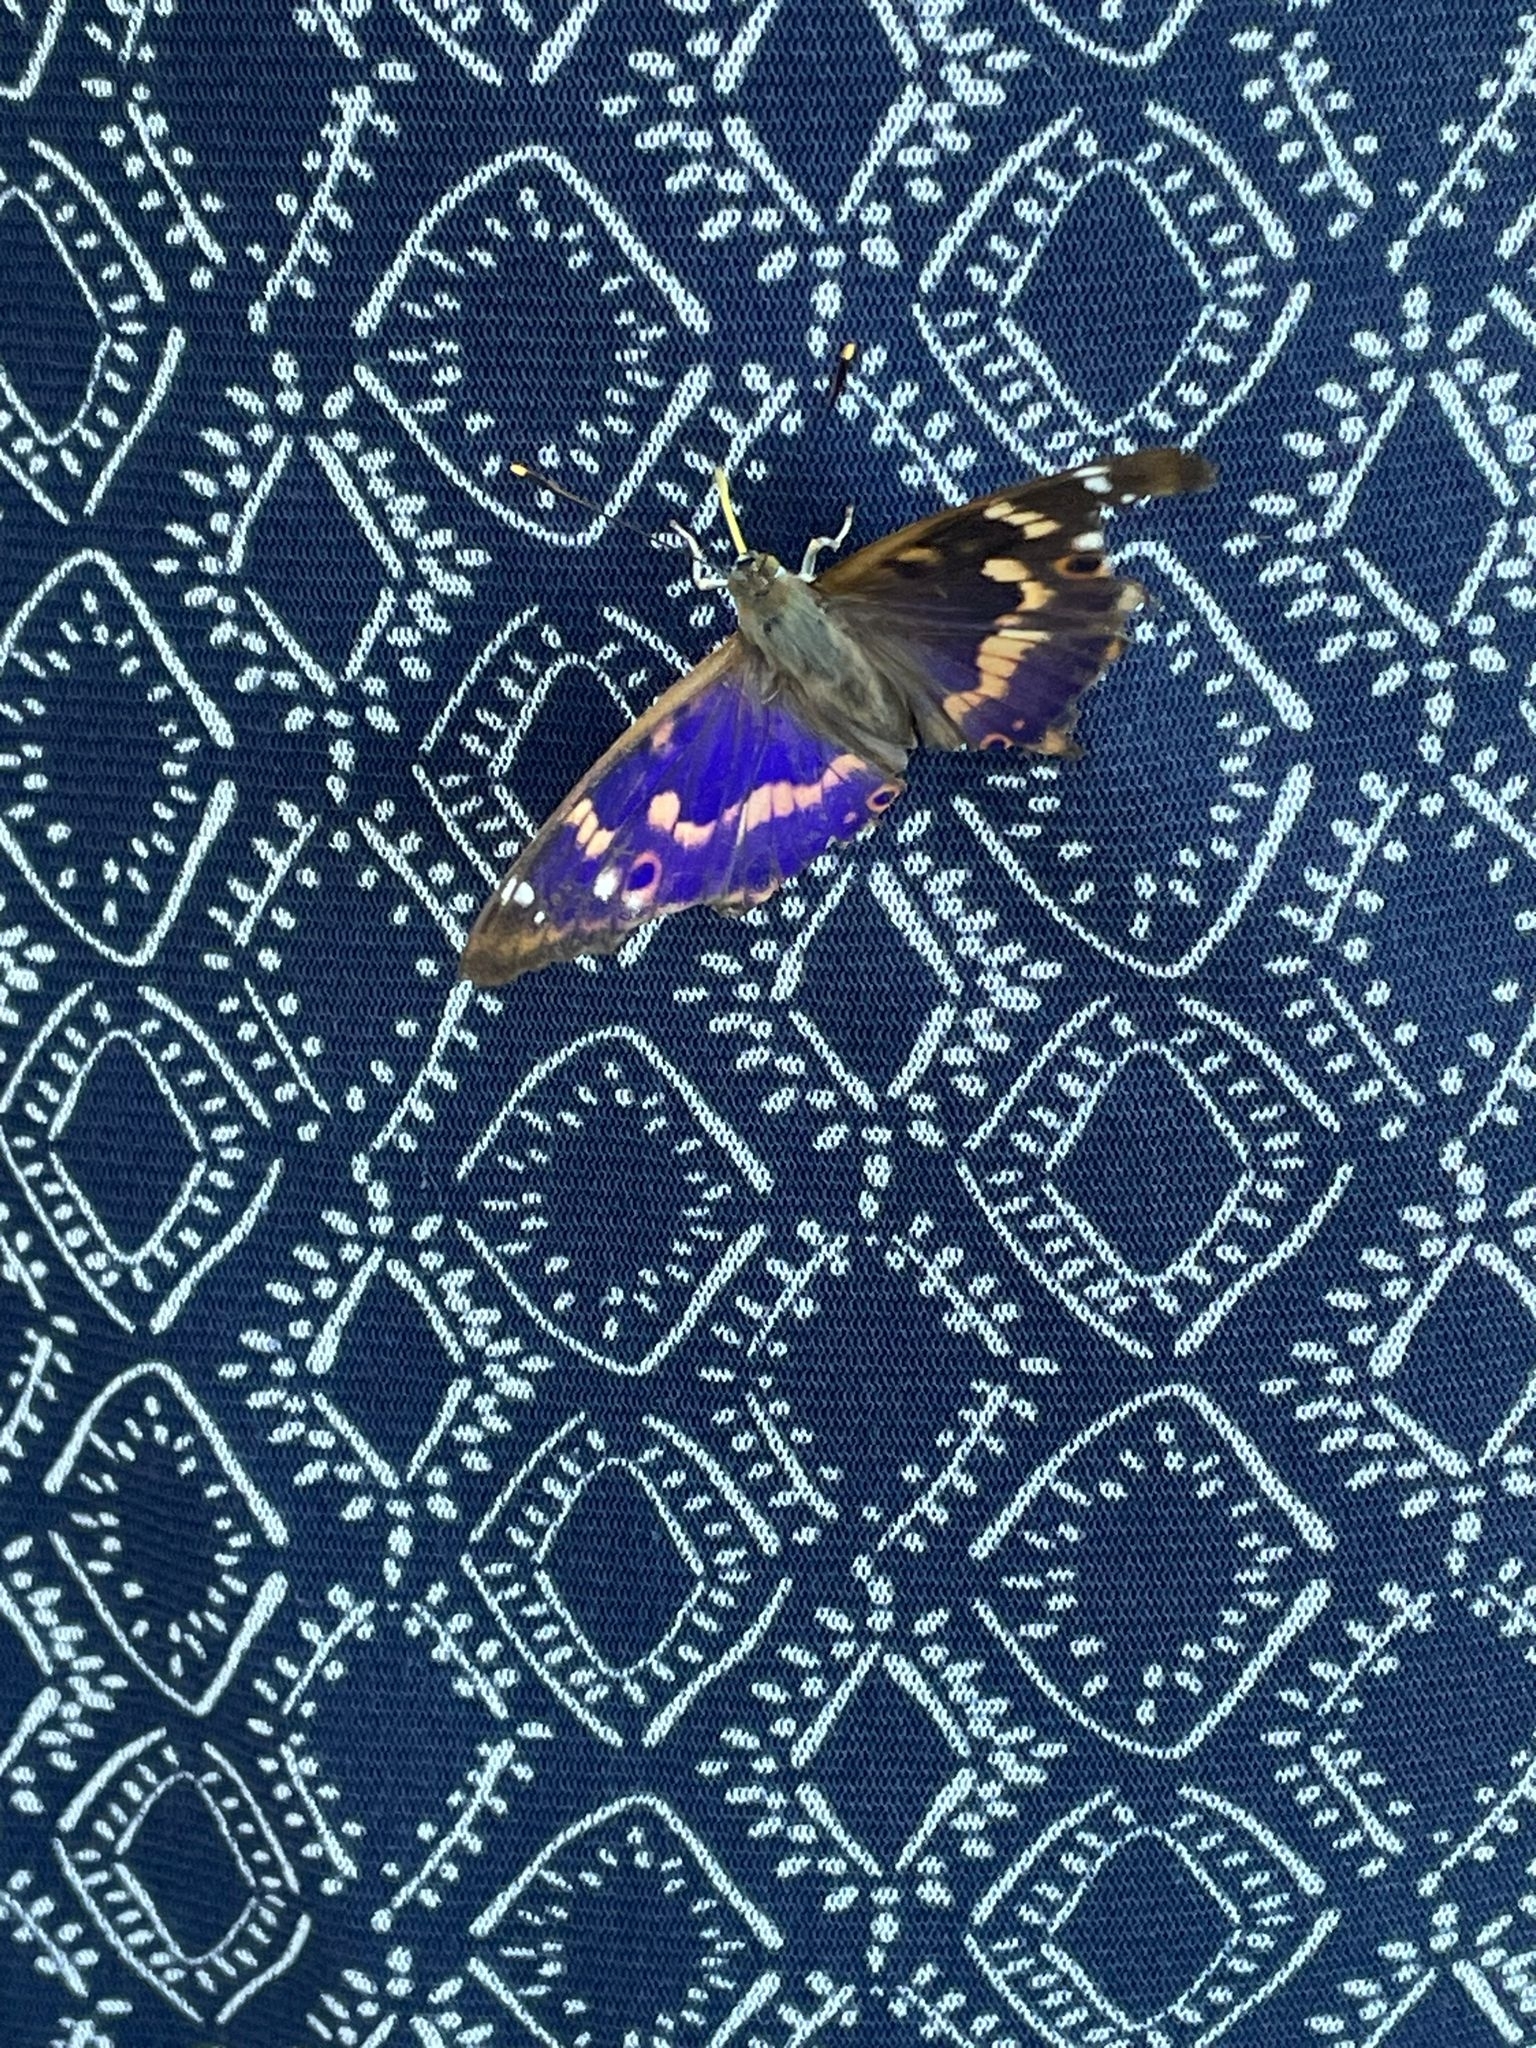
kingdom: Animalia
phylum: Arthropoda
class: Insecta
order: Lepidoptera
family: Nymphalidae
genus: Apatura
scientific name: Apatura ilia
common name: Lesser purple emperor
